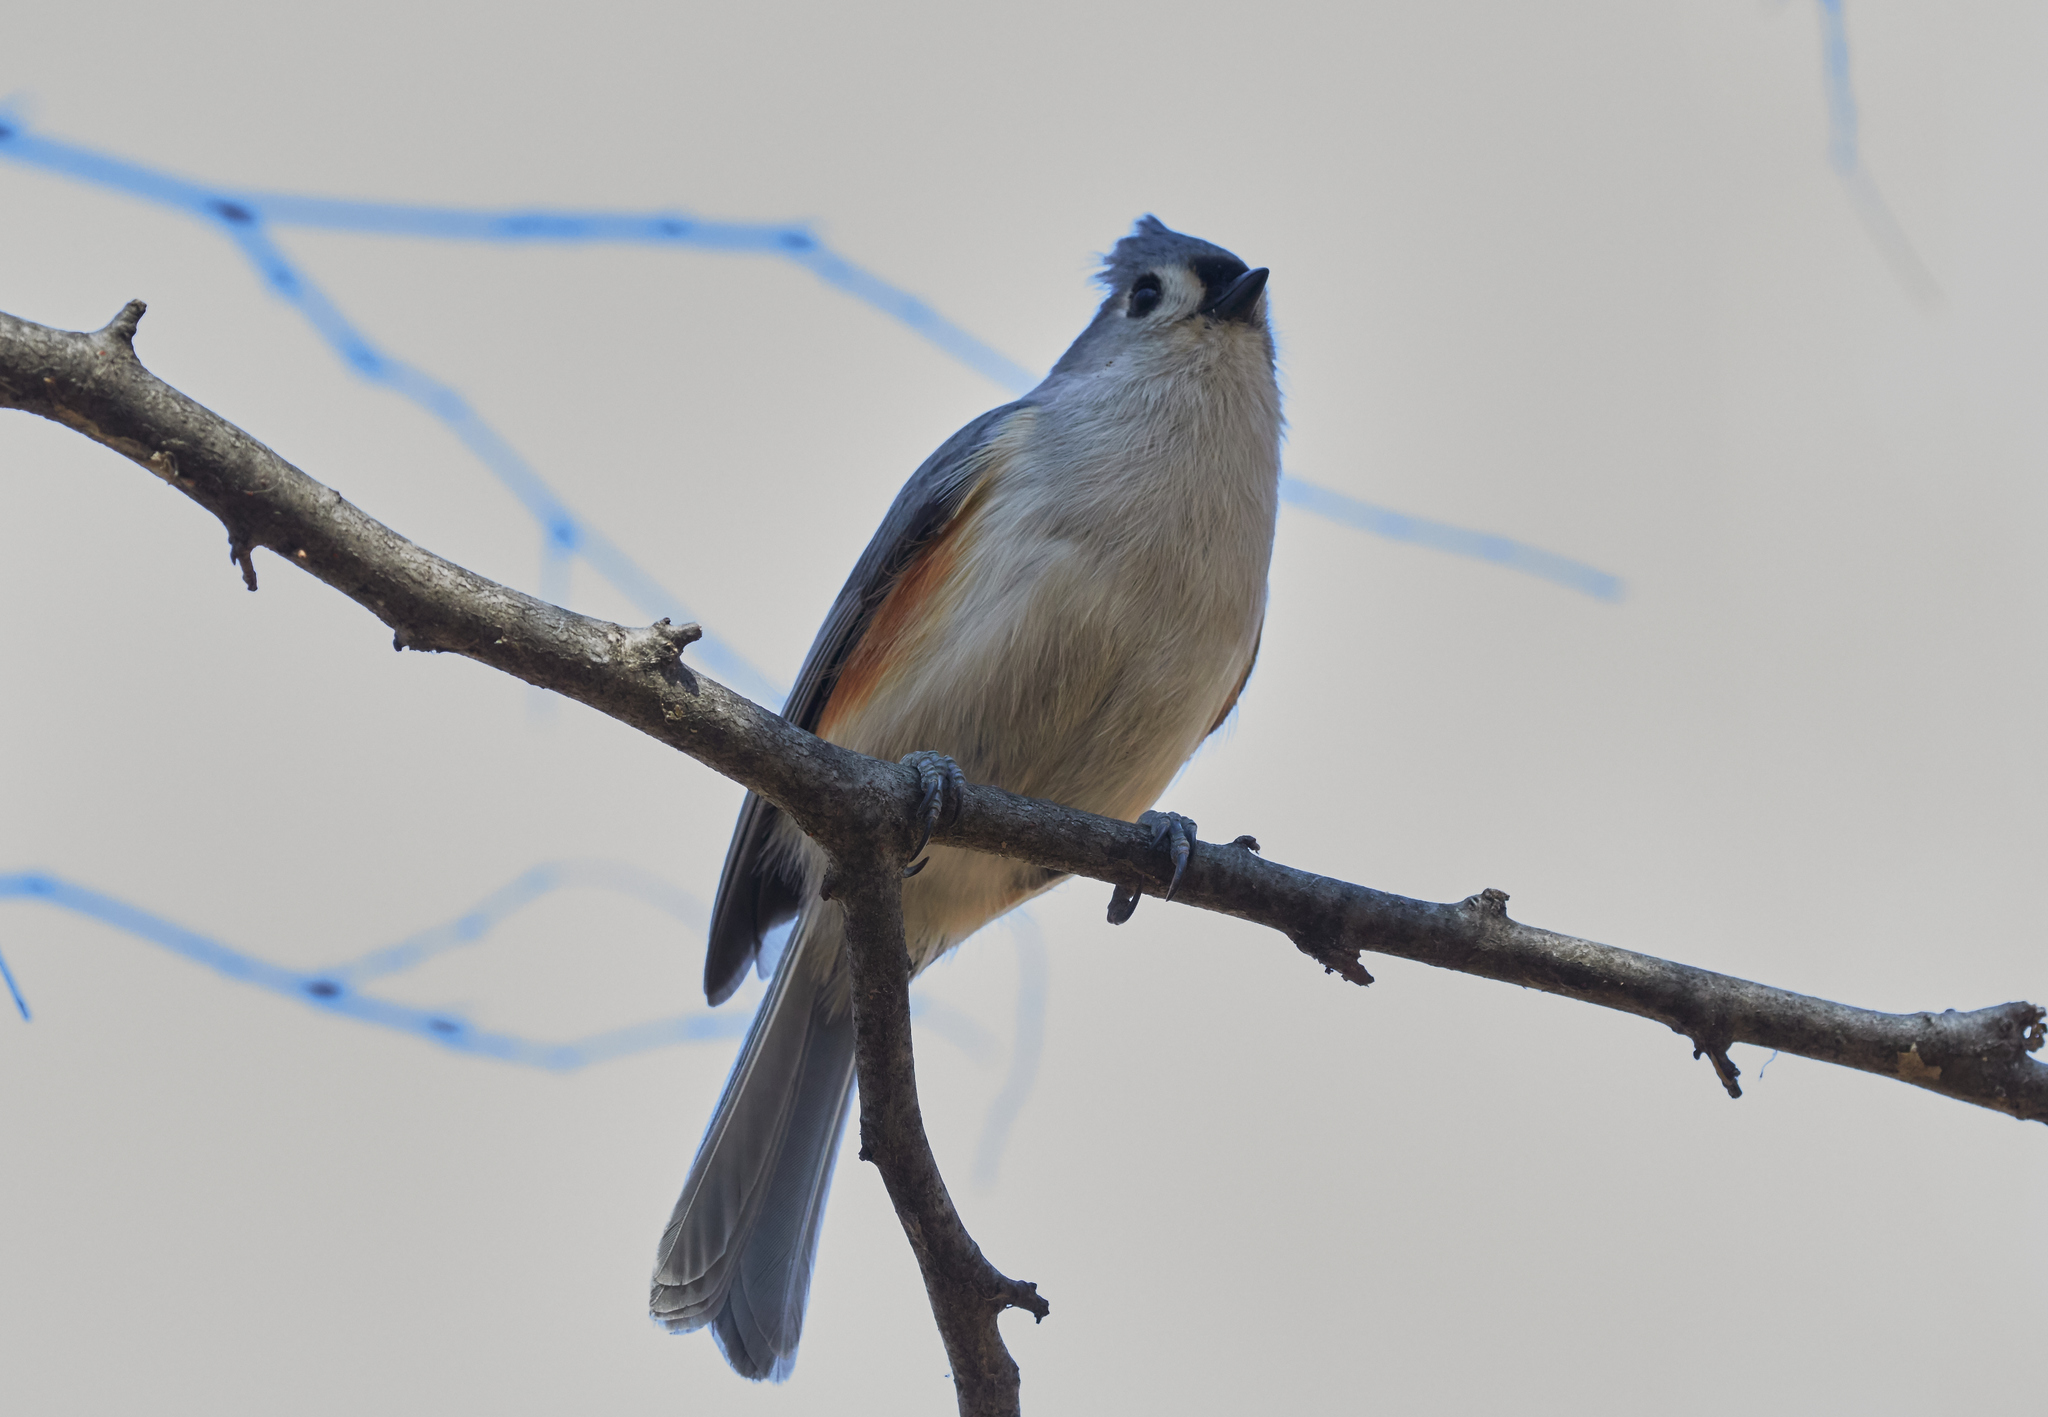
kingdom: Animalia
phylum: Chordata
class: Aves
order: Passeriformes
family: Paridae
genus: Baeolophus
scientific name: Baeolophus bicolor
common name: Tufted titmouse
